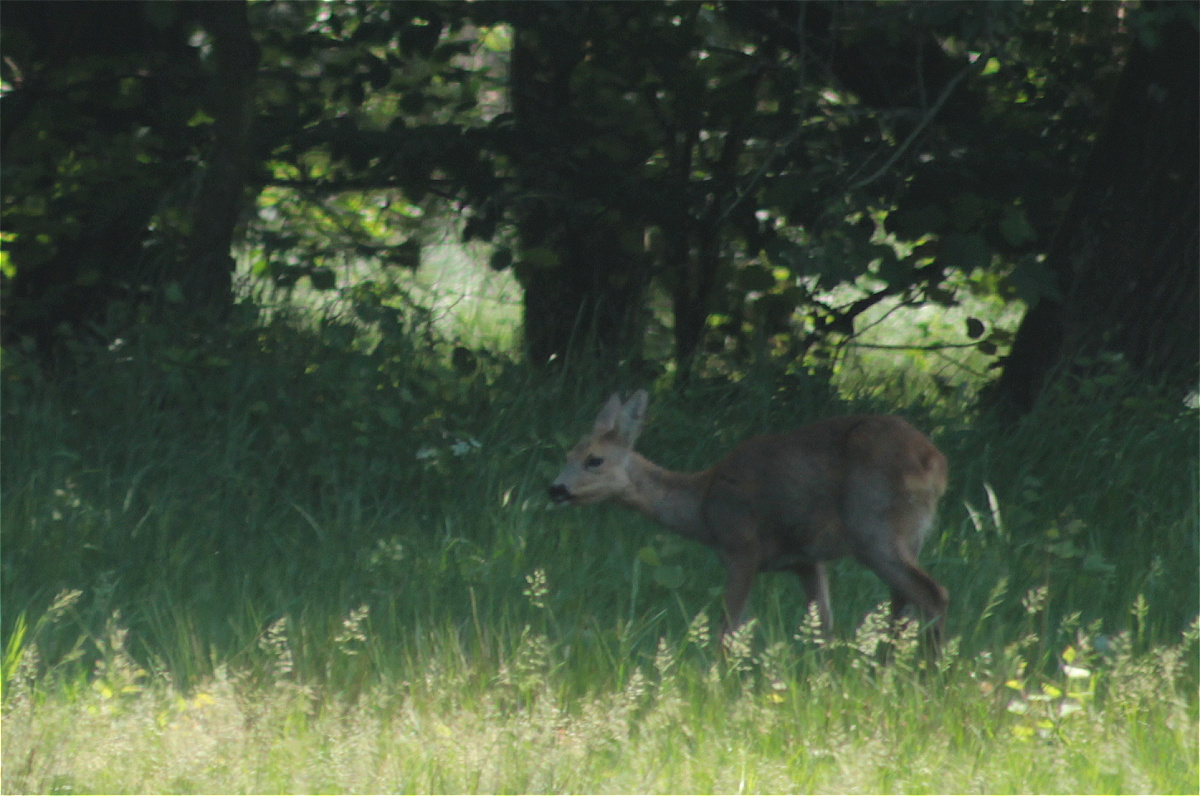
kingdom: Animalia
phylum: Chordata
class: Mammalia
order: Artiodactyla
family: Cervidae
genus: Capreolus
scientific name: Capreolus capreolus
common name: Western roe deer
